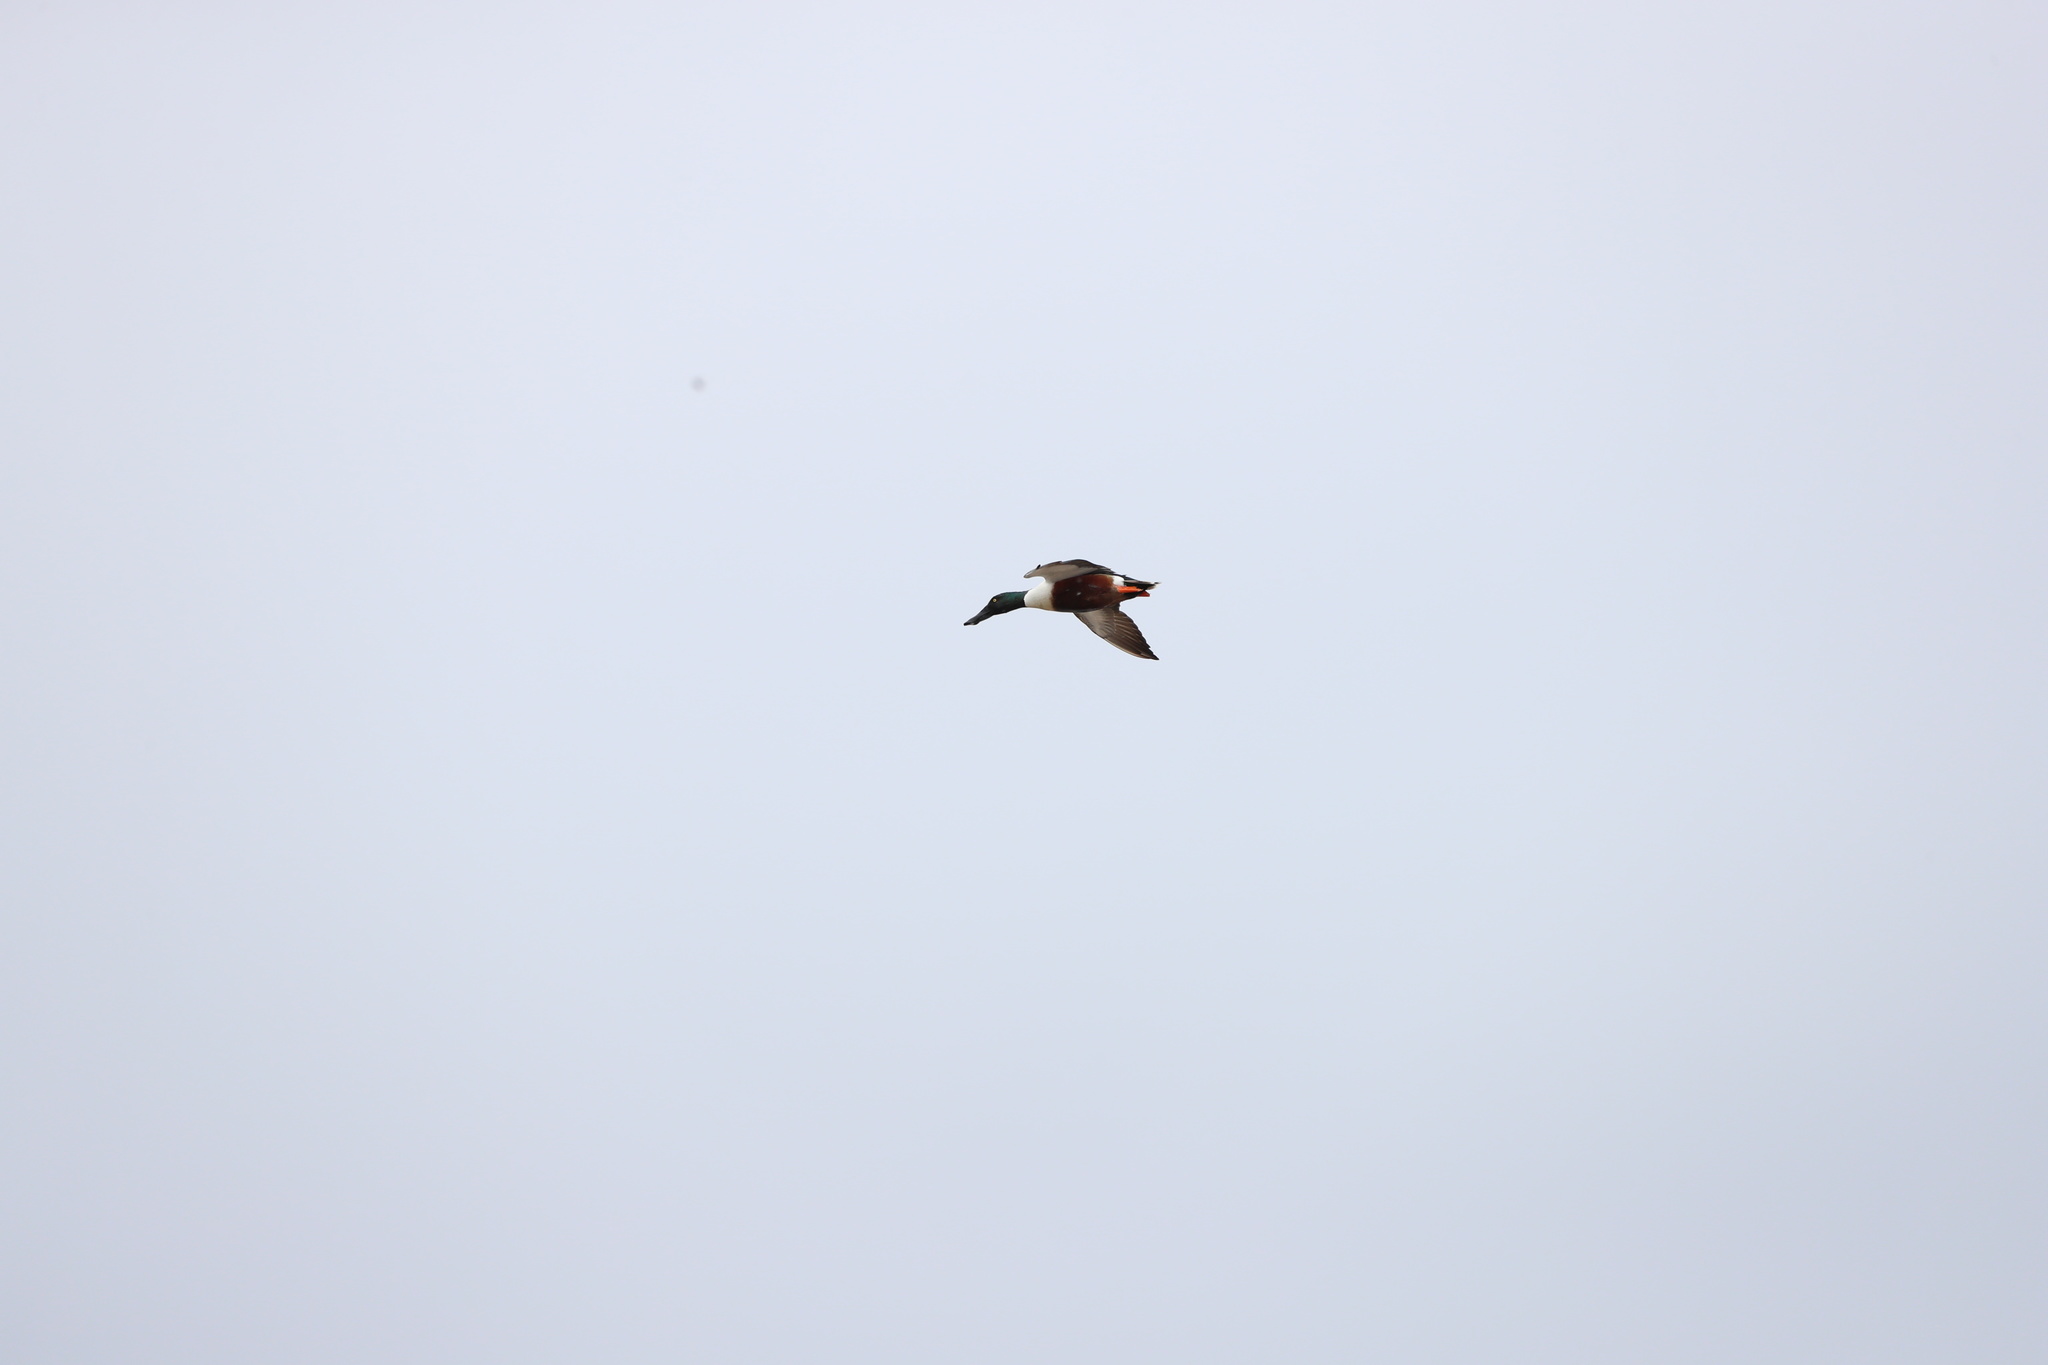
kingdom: Animalia
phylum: Chordata
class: Aves
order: Anseriformes
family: Anatidae
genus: Spatula
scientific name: Spatula clypeata
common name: Northern shoveler
